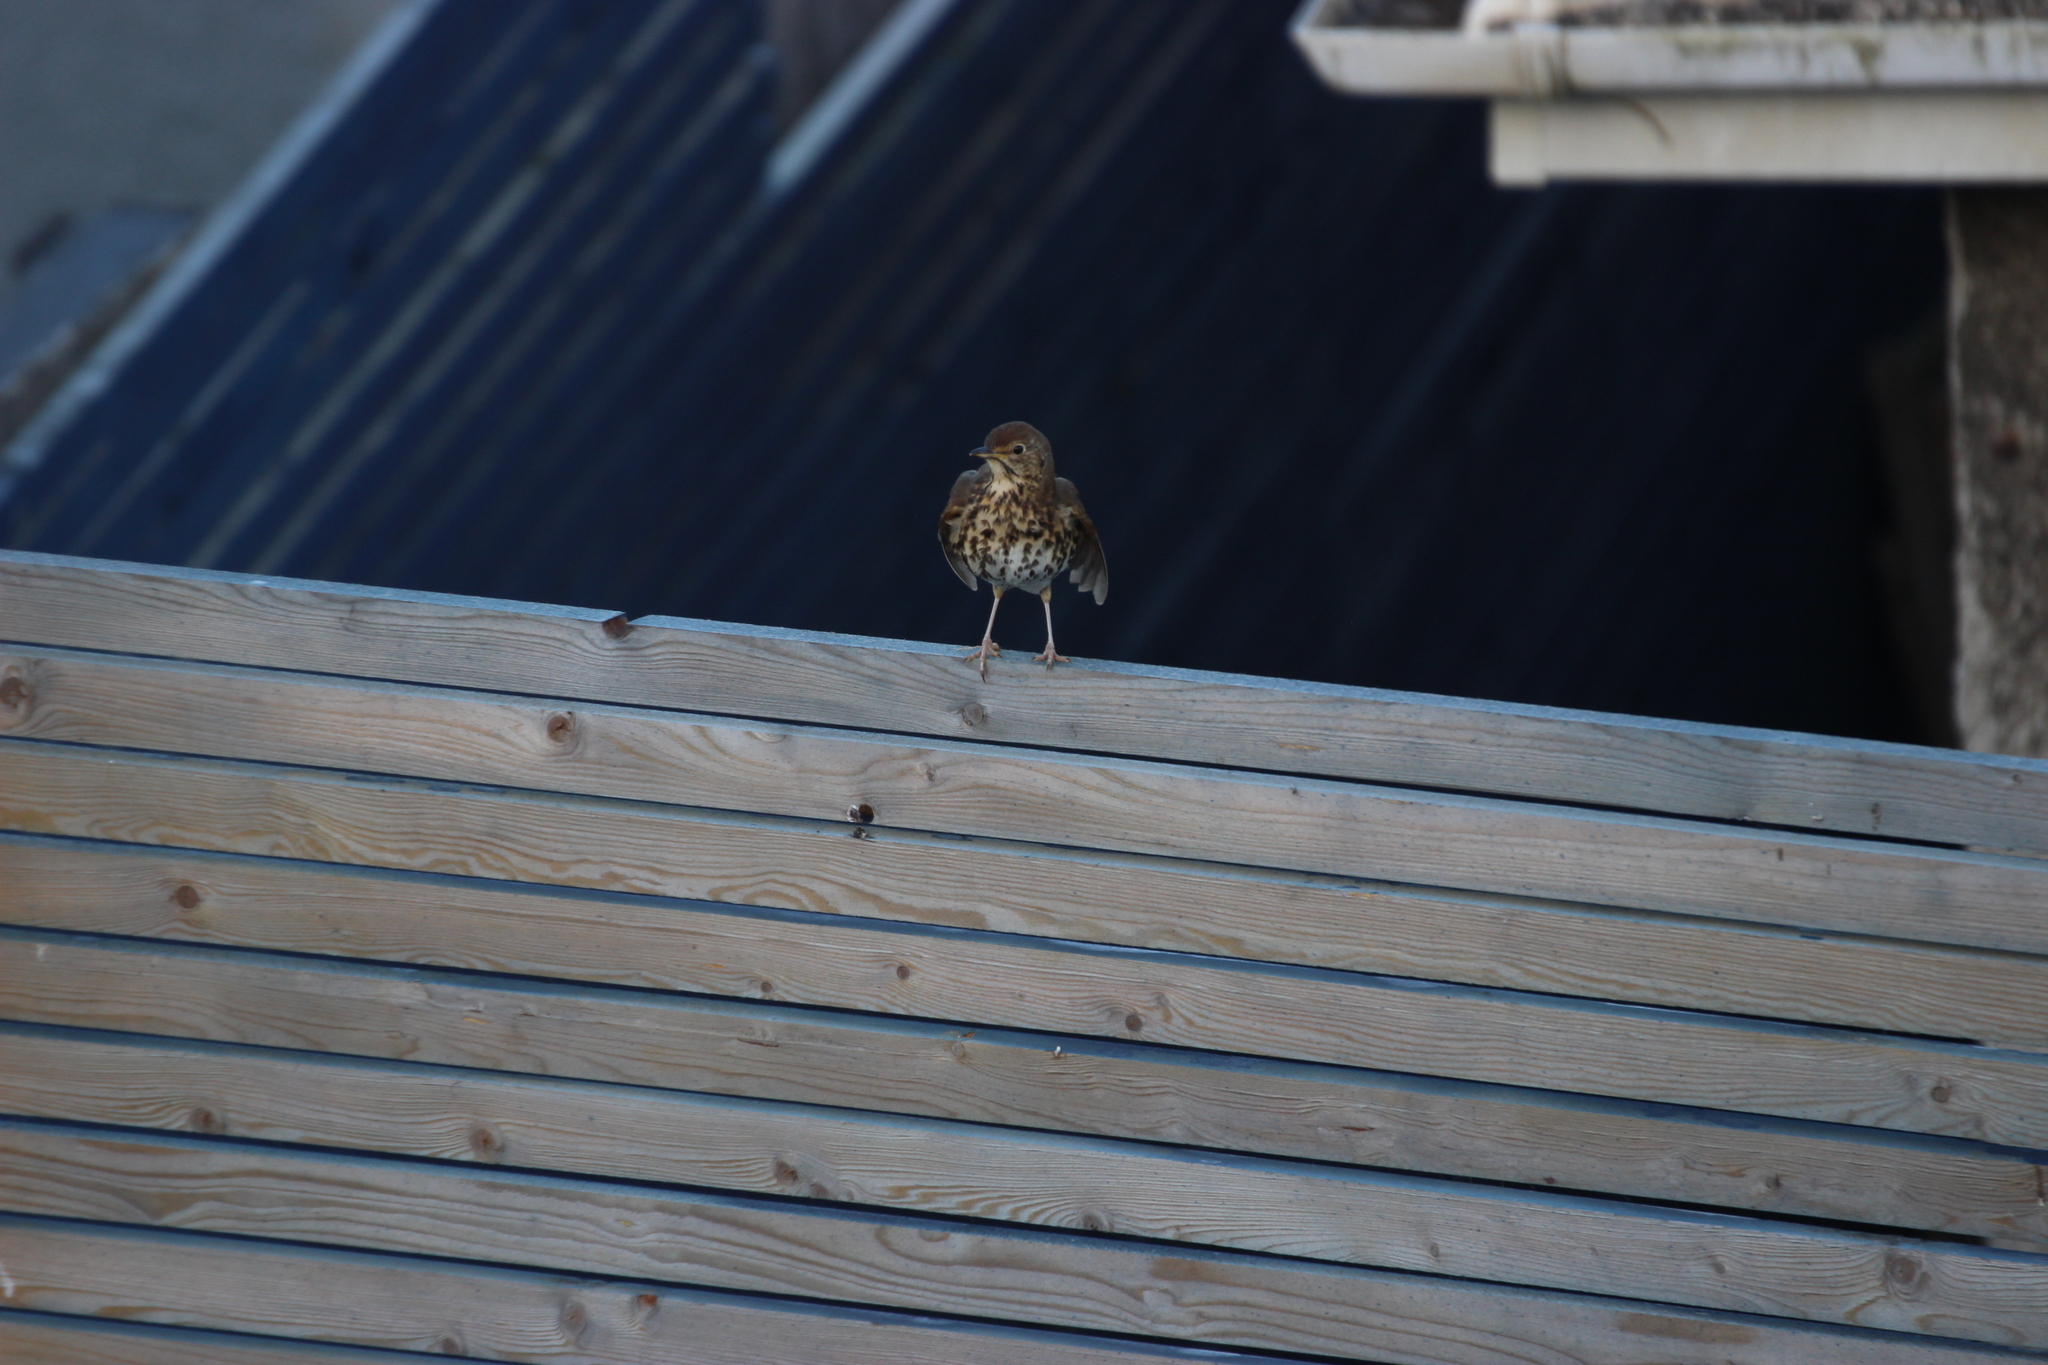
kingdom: Animalia
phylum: Chordata
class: Aves
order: Passeriformes
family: Turdidae
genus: Turdus
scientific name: Turdus philomelos
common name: Song thrush
